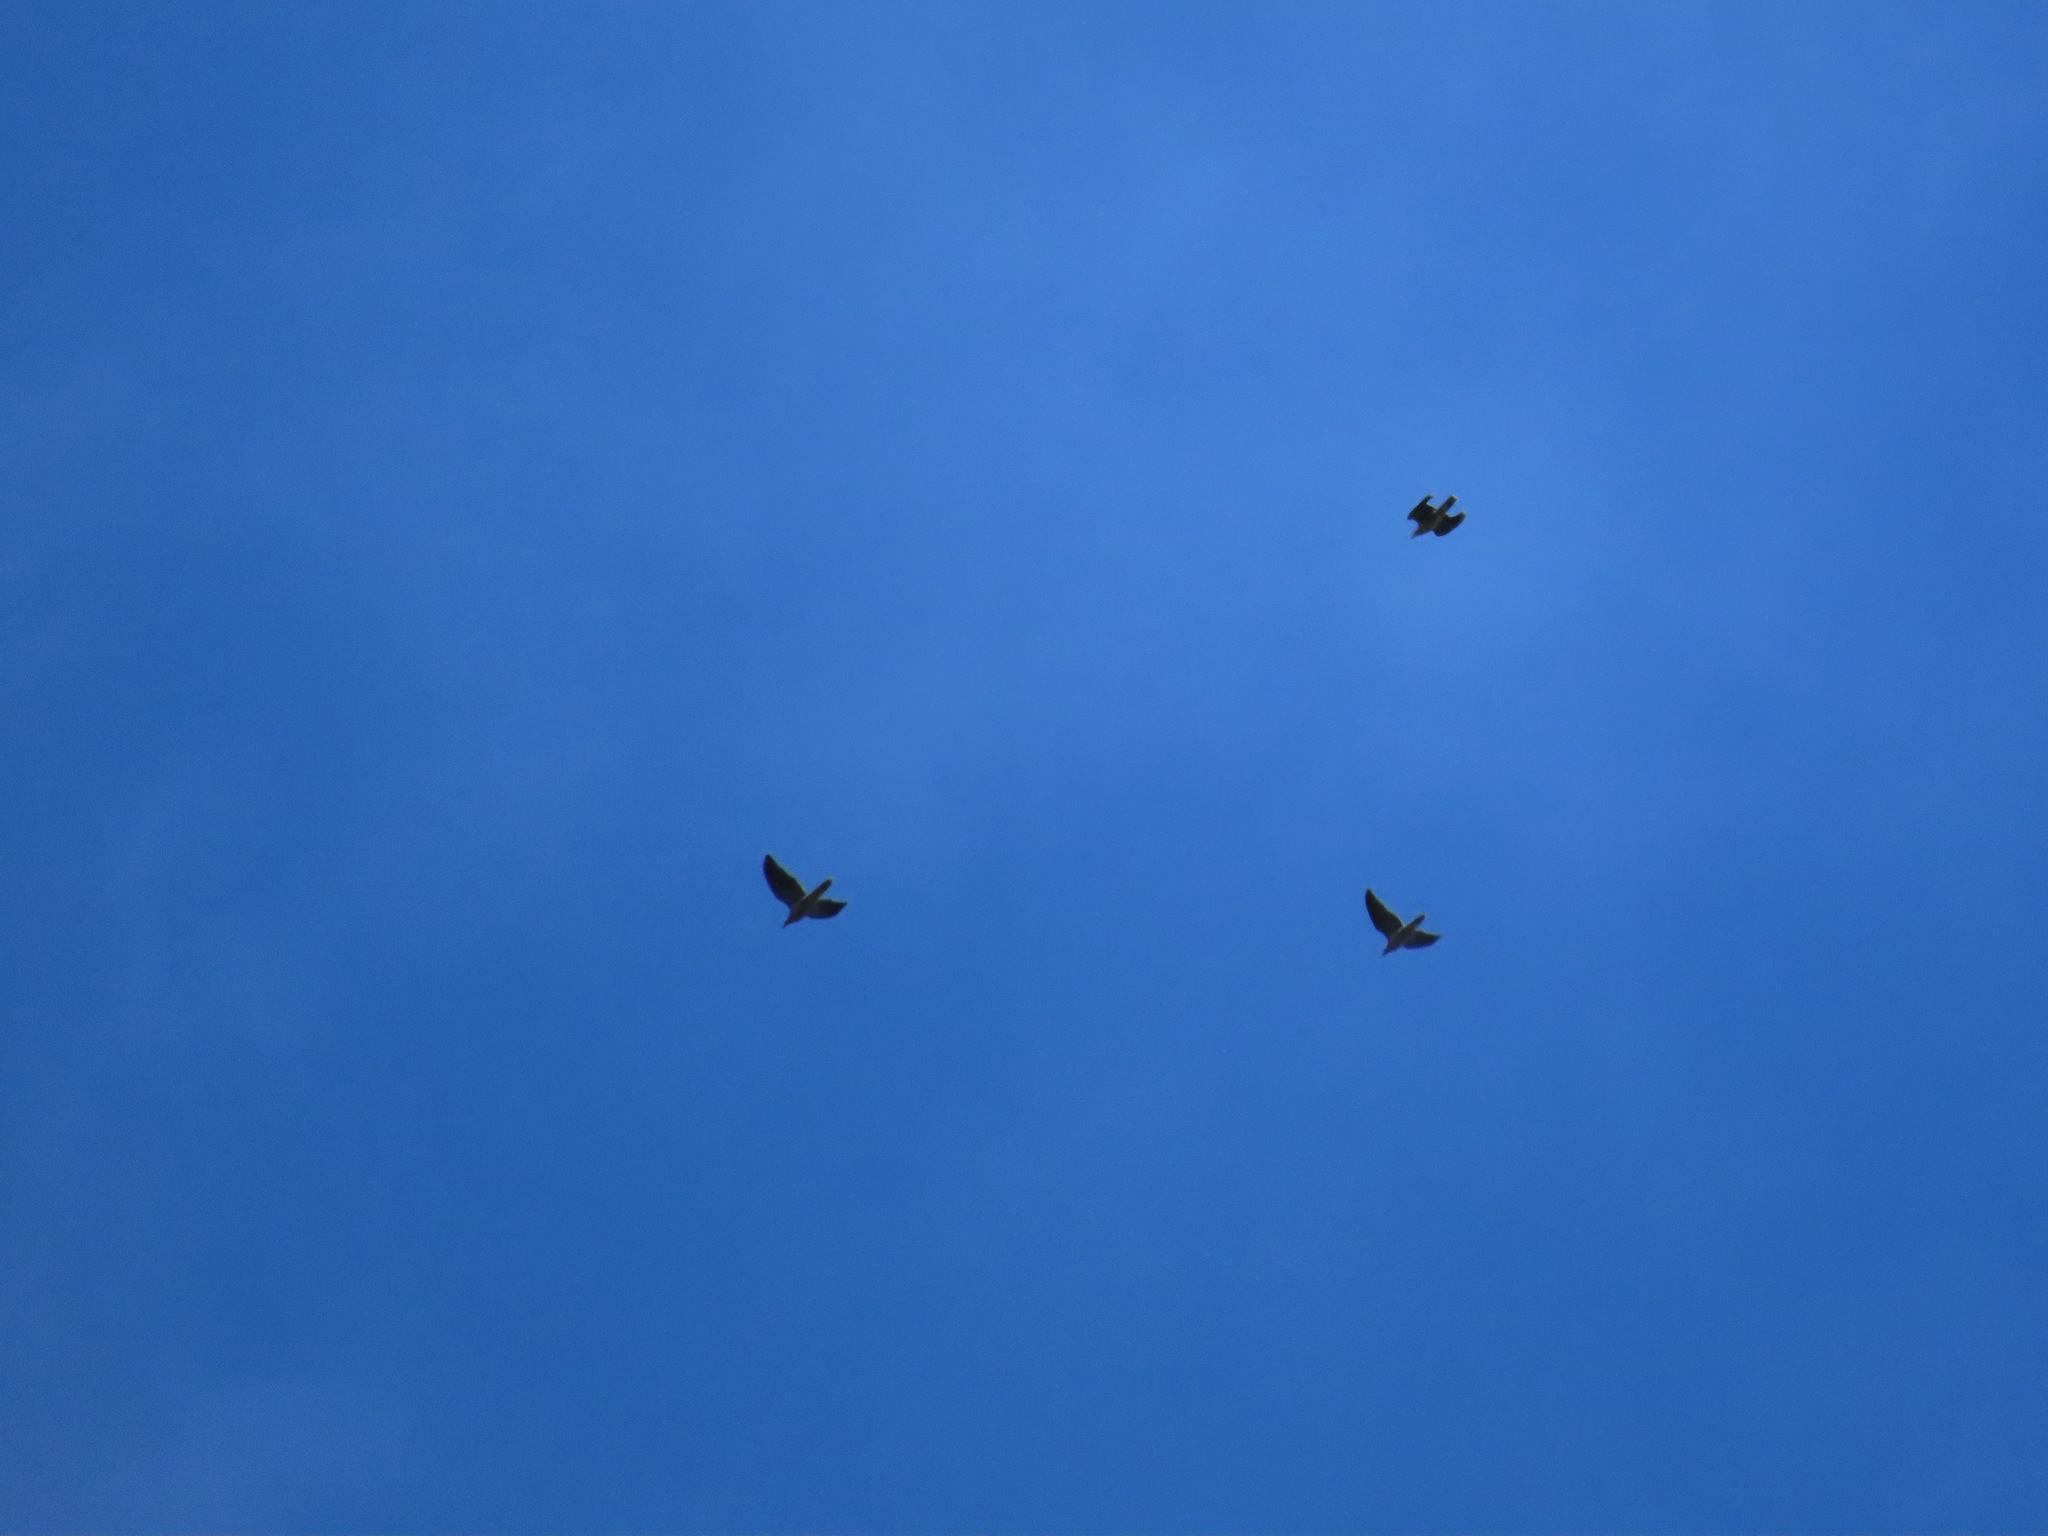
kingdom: Animalia
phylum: Chordata
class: Aves
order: Columbiformes
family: Columbidae
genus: Patagioenas
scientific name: Patagioenas fasciata
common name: Band-tailed pigeon
